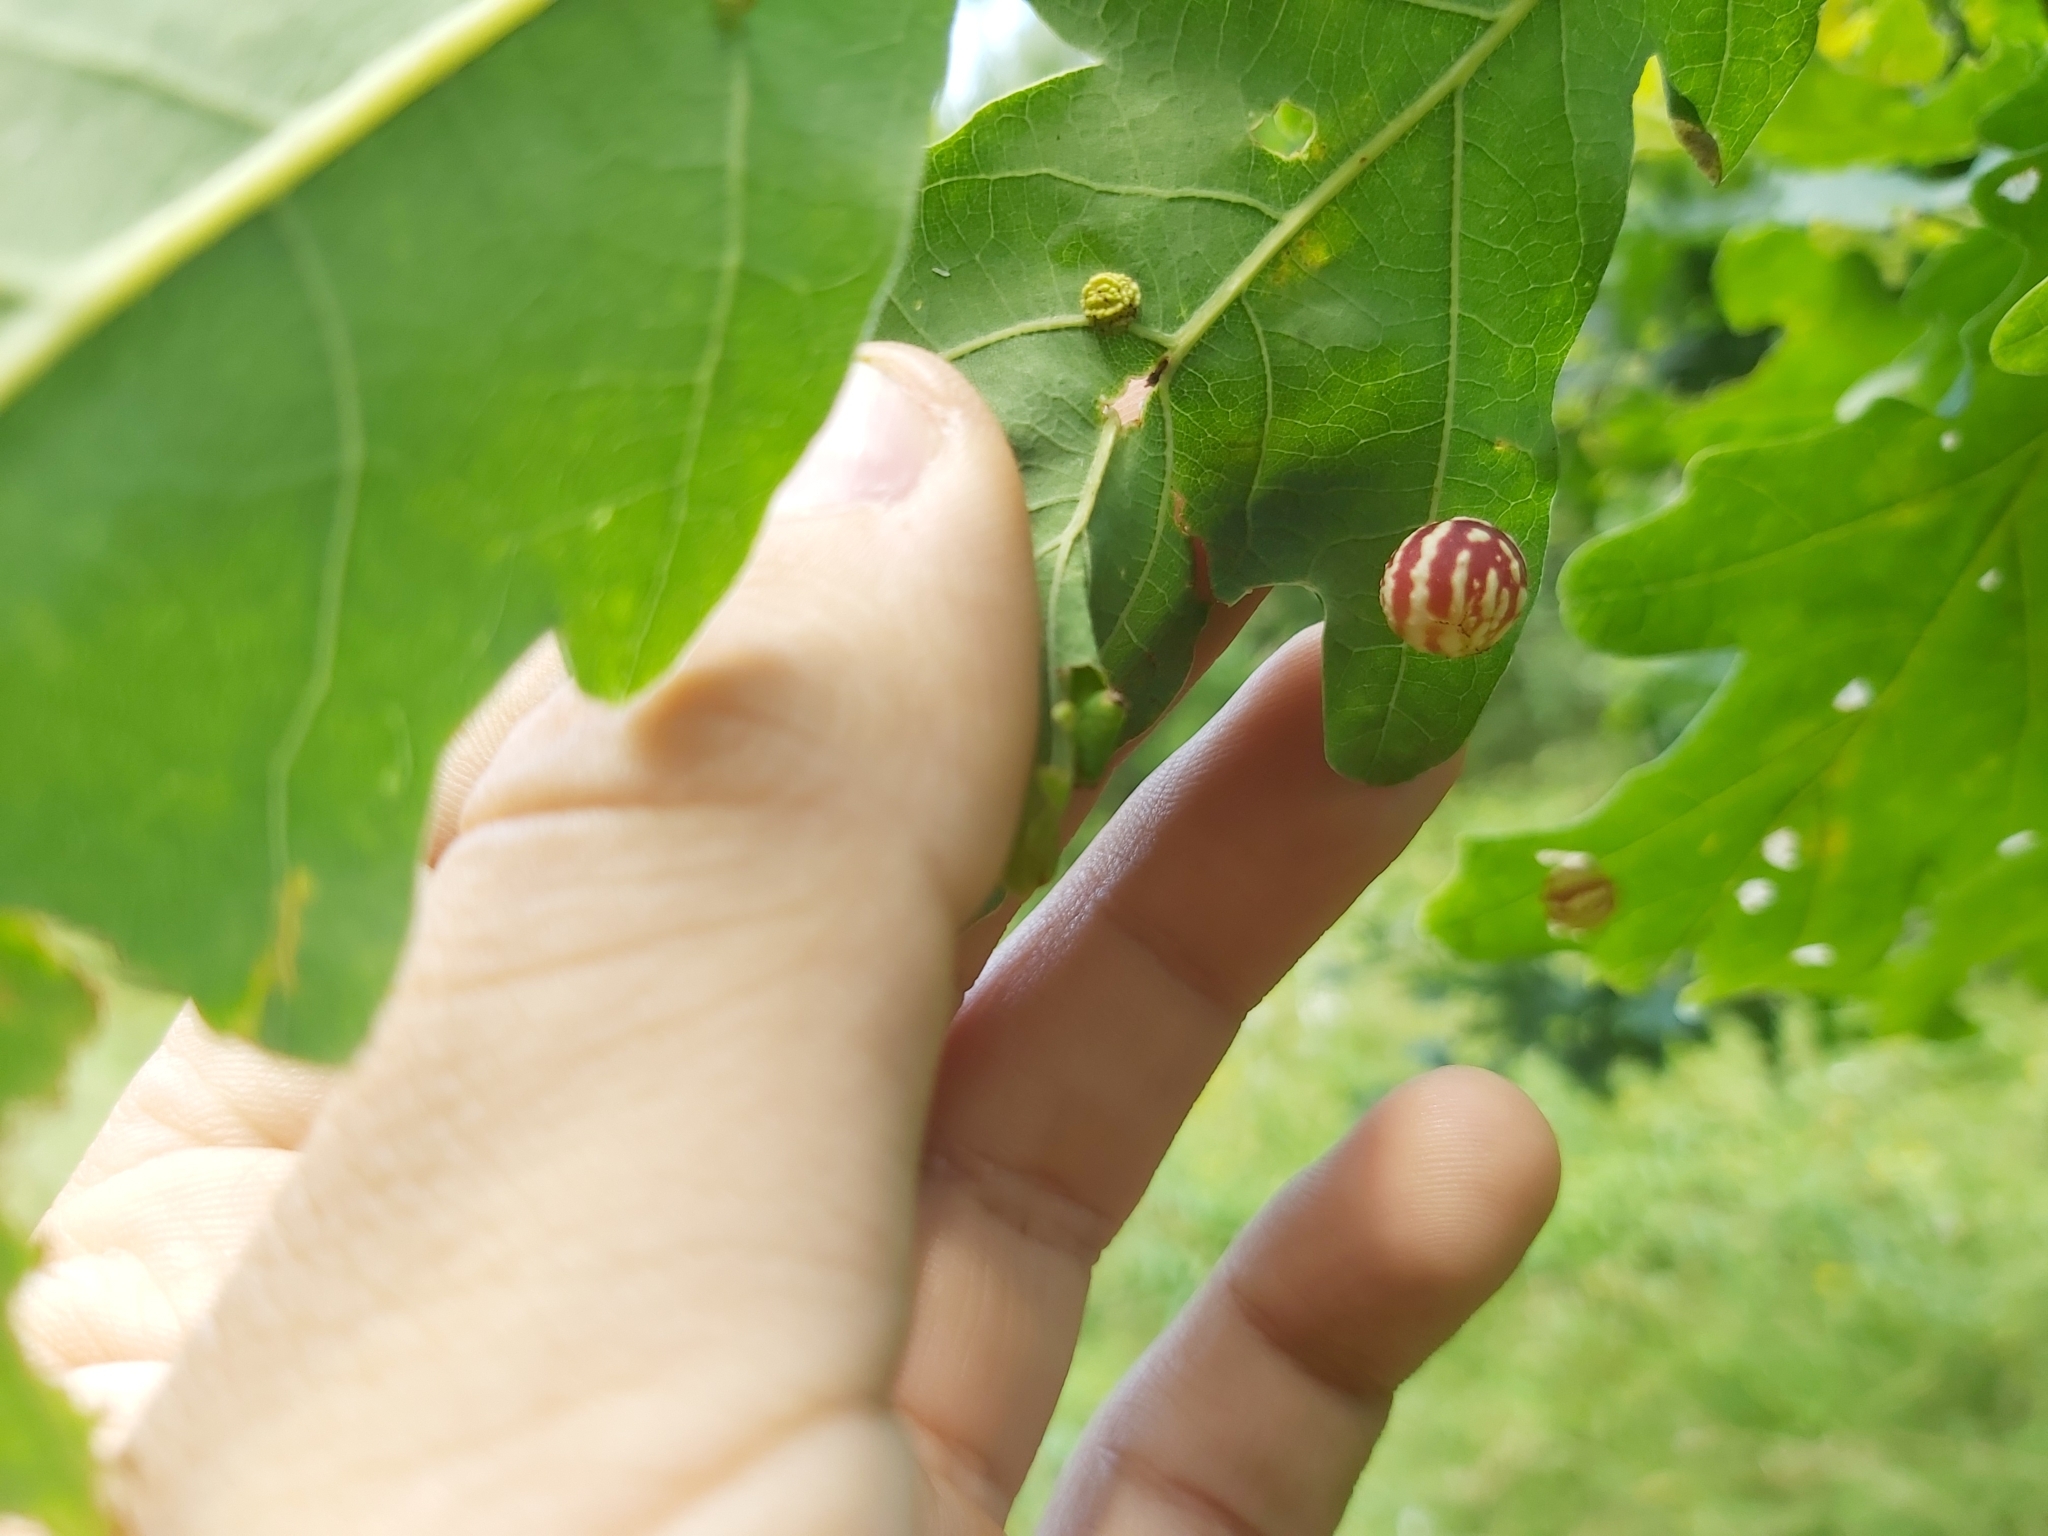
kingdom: Animalia
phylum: Arthropoda
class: Insecta
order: Hymenoptera
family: Cynipidae
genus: Cynips
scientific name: Cynips longiventris
